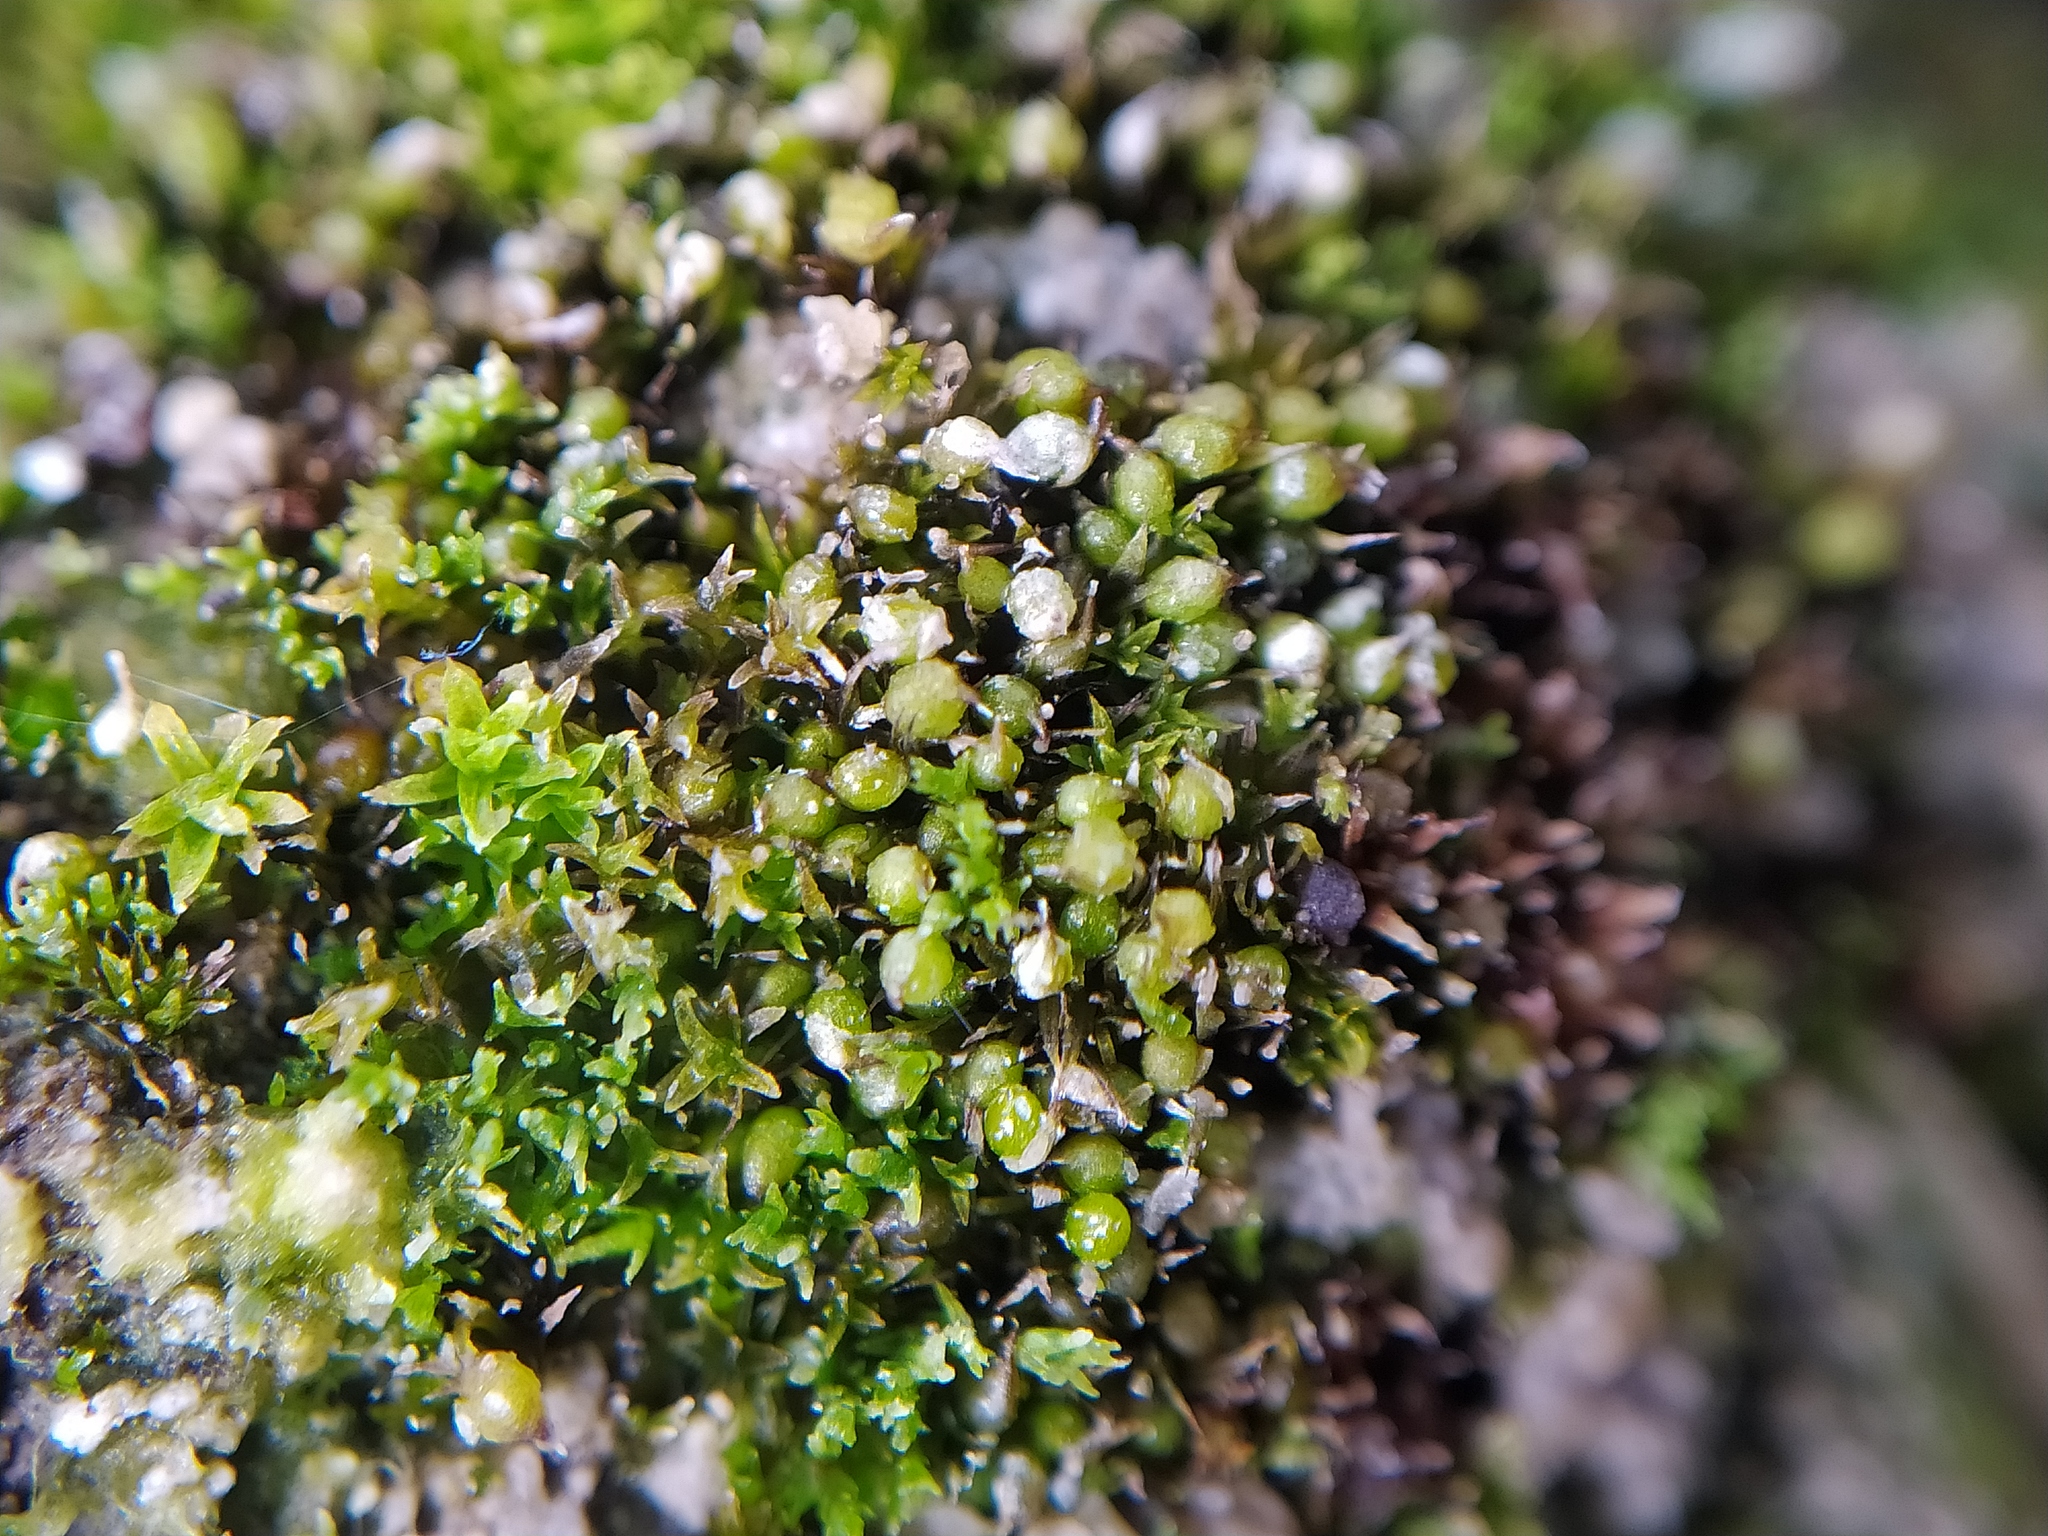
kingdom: Plantae
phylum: Bryophyta
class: Bryopsida
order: Pottiales
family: Pottiaceae
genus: Microbryum
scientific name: Microbryum curvicollum
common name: Swan-necked earth-moss
